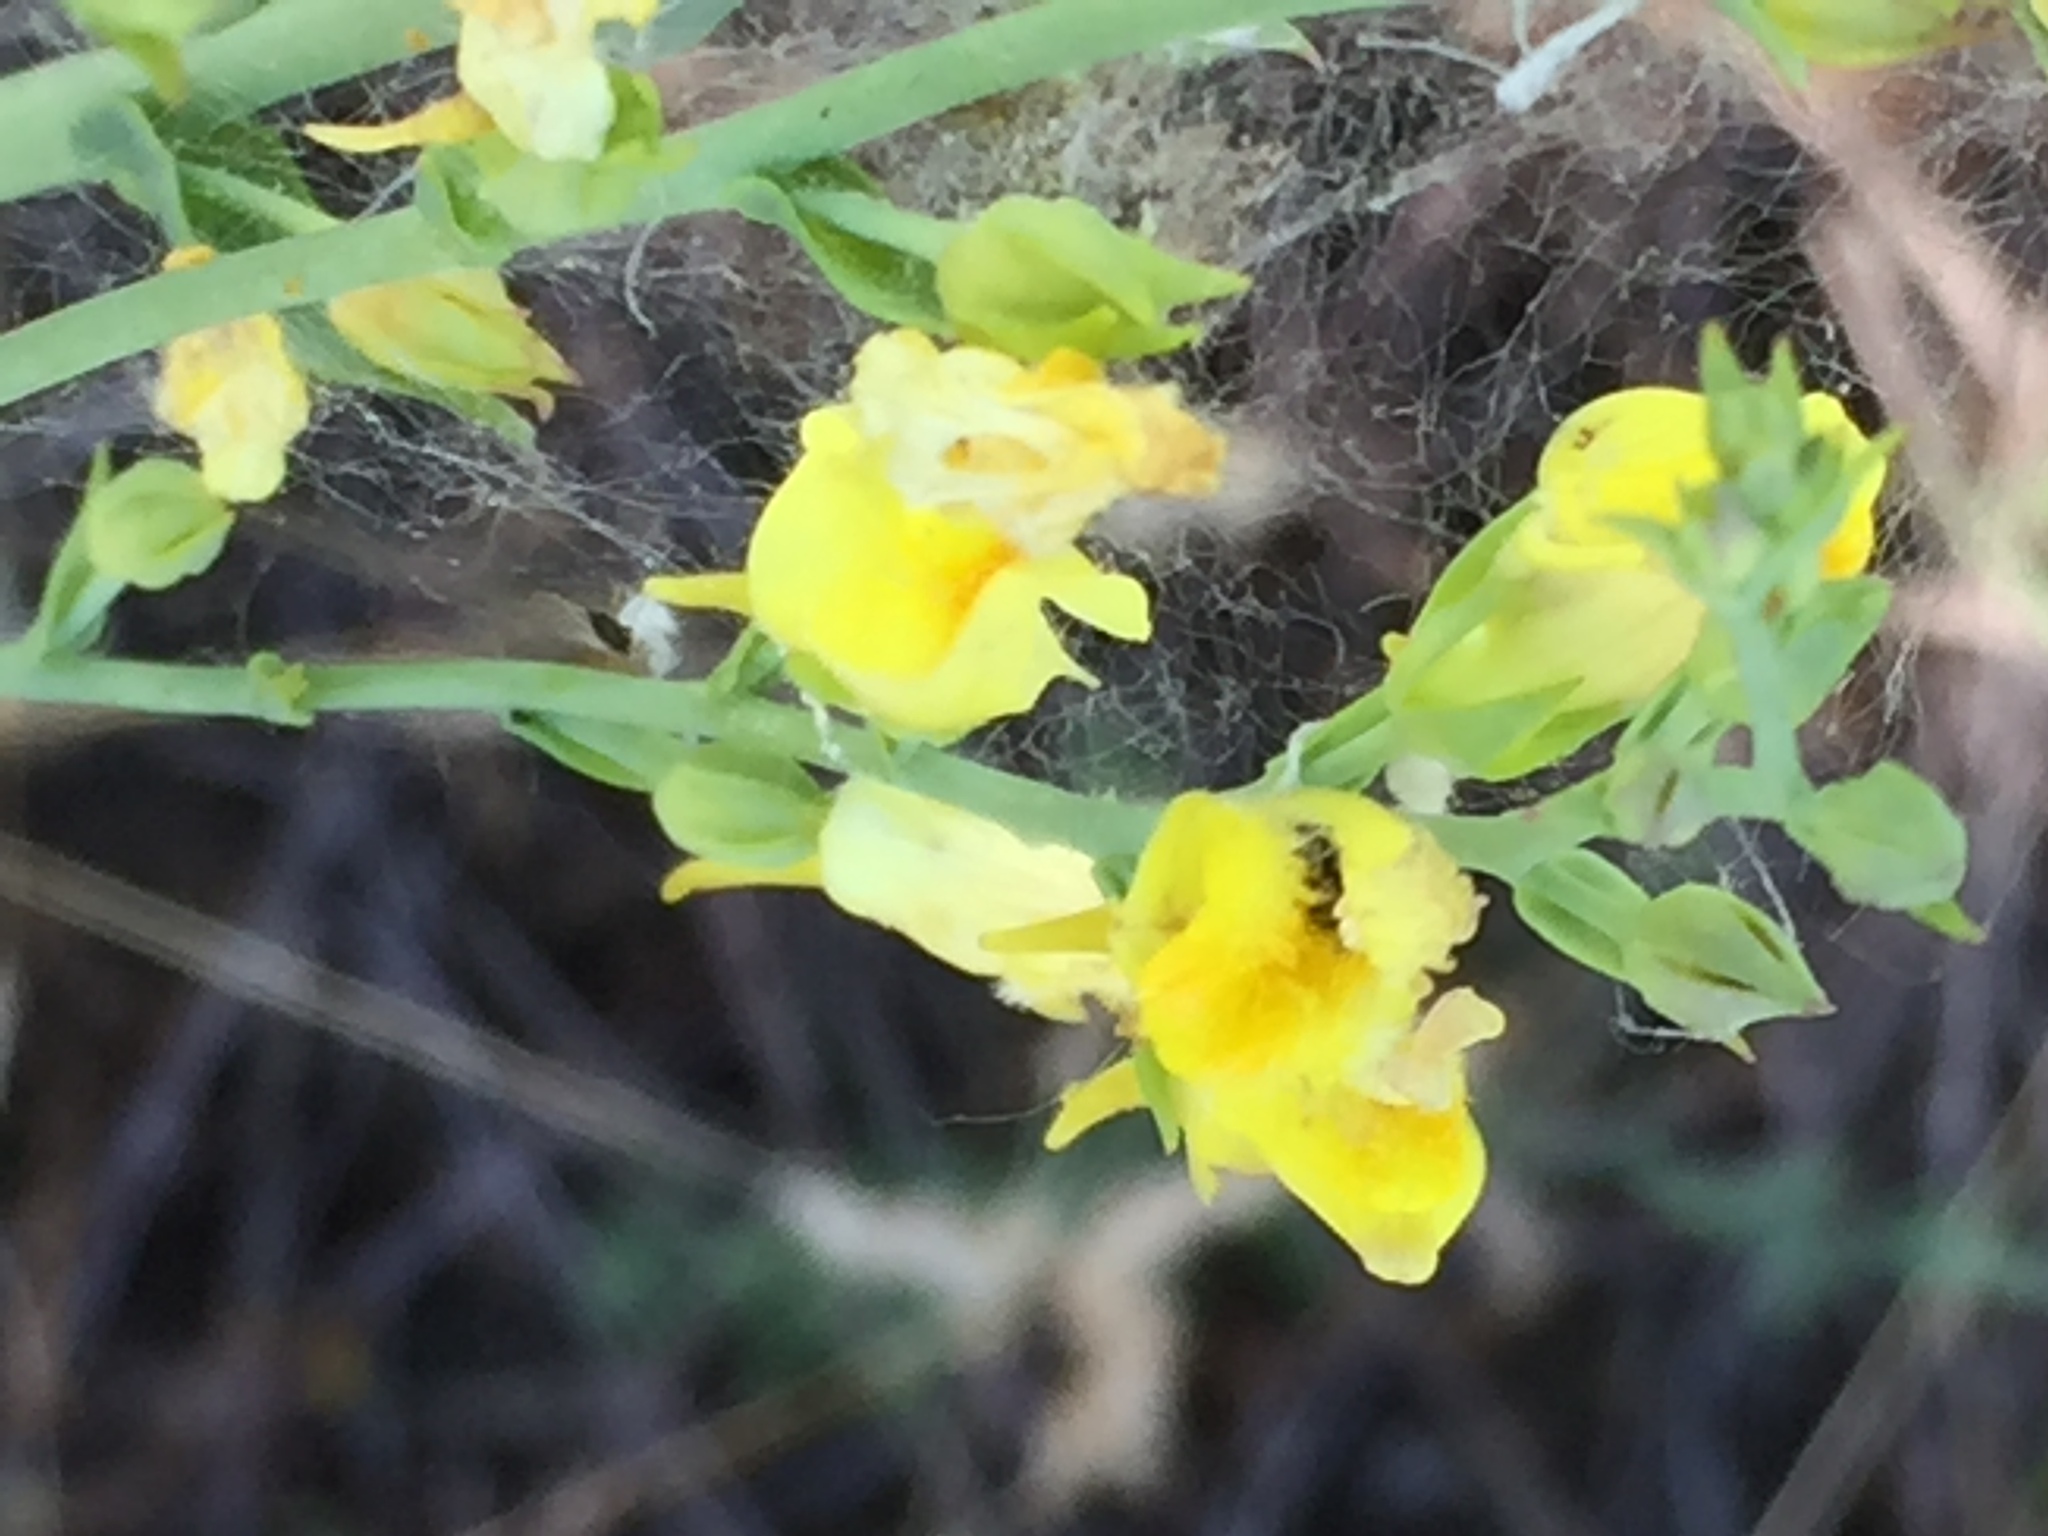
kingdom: Plantae
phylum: Tracheophyta
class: Magnoliopsida
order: Lamiales
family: Plantaginaceae
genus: Linaria
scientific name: Linaria genistifolia
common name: Broomleaf toadflax
